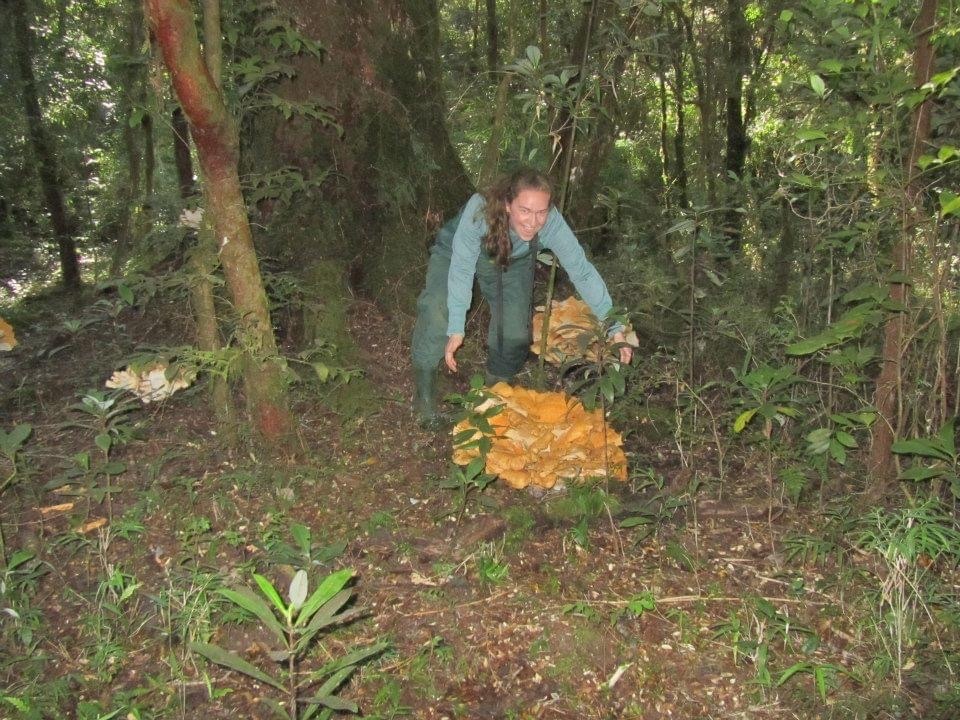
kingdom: Fungi
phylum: Basidiomycota
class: Agaricomycetes
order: Russulales
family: Bondarzewiaceae
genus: Bondarzewia
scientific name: Bondarzewia guaitecasensis
